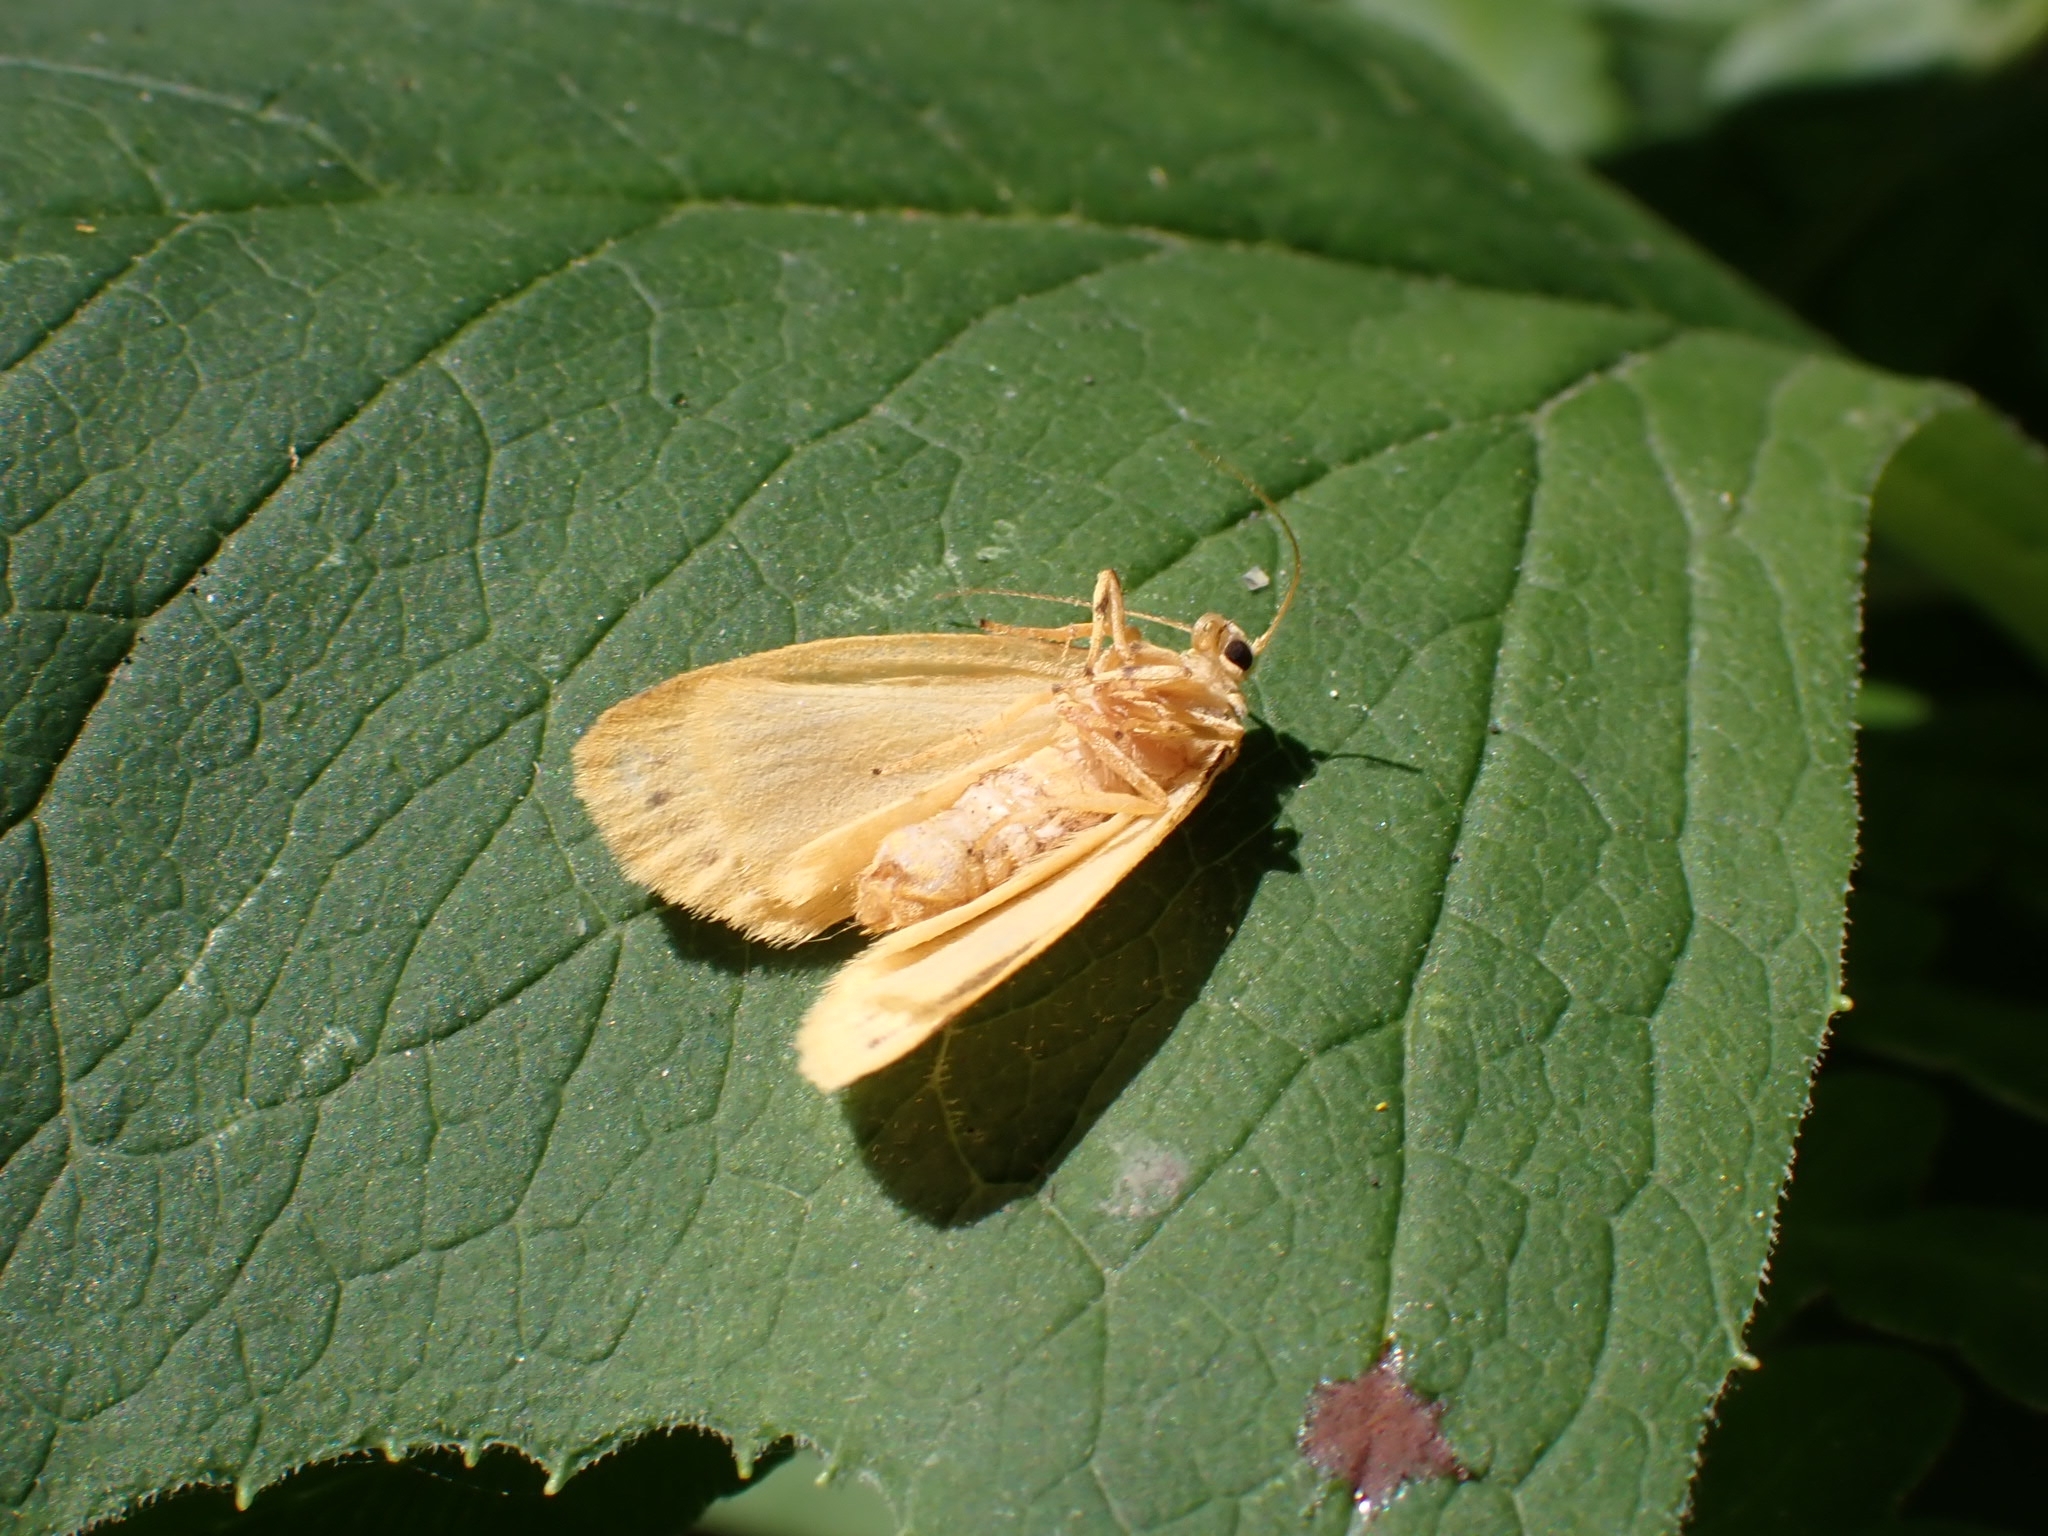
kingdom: Animalia
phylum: Arthropoda
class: Insecta
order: Lepidoptera
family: Erebidae
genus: Miltochrista
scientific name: Miltochrista miniata
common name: Rosy footman
